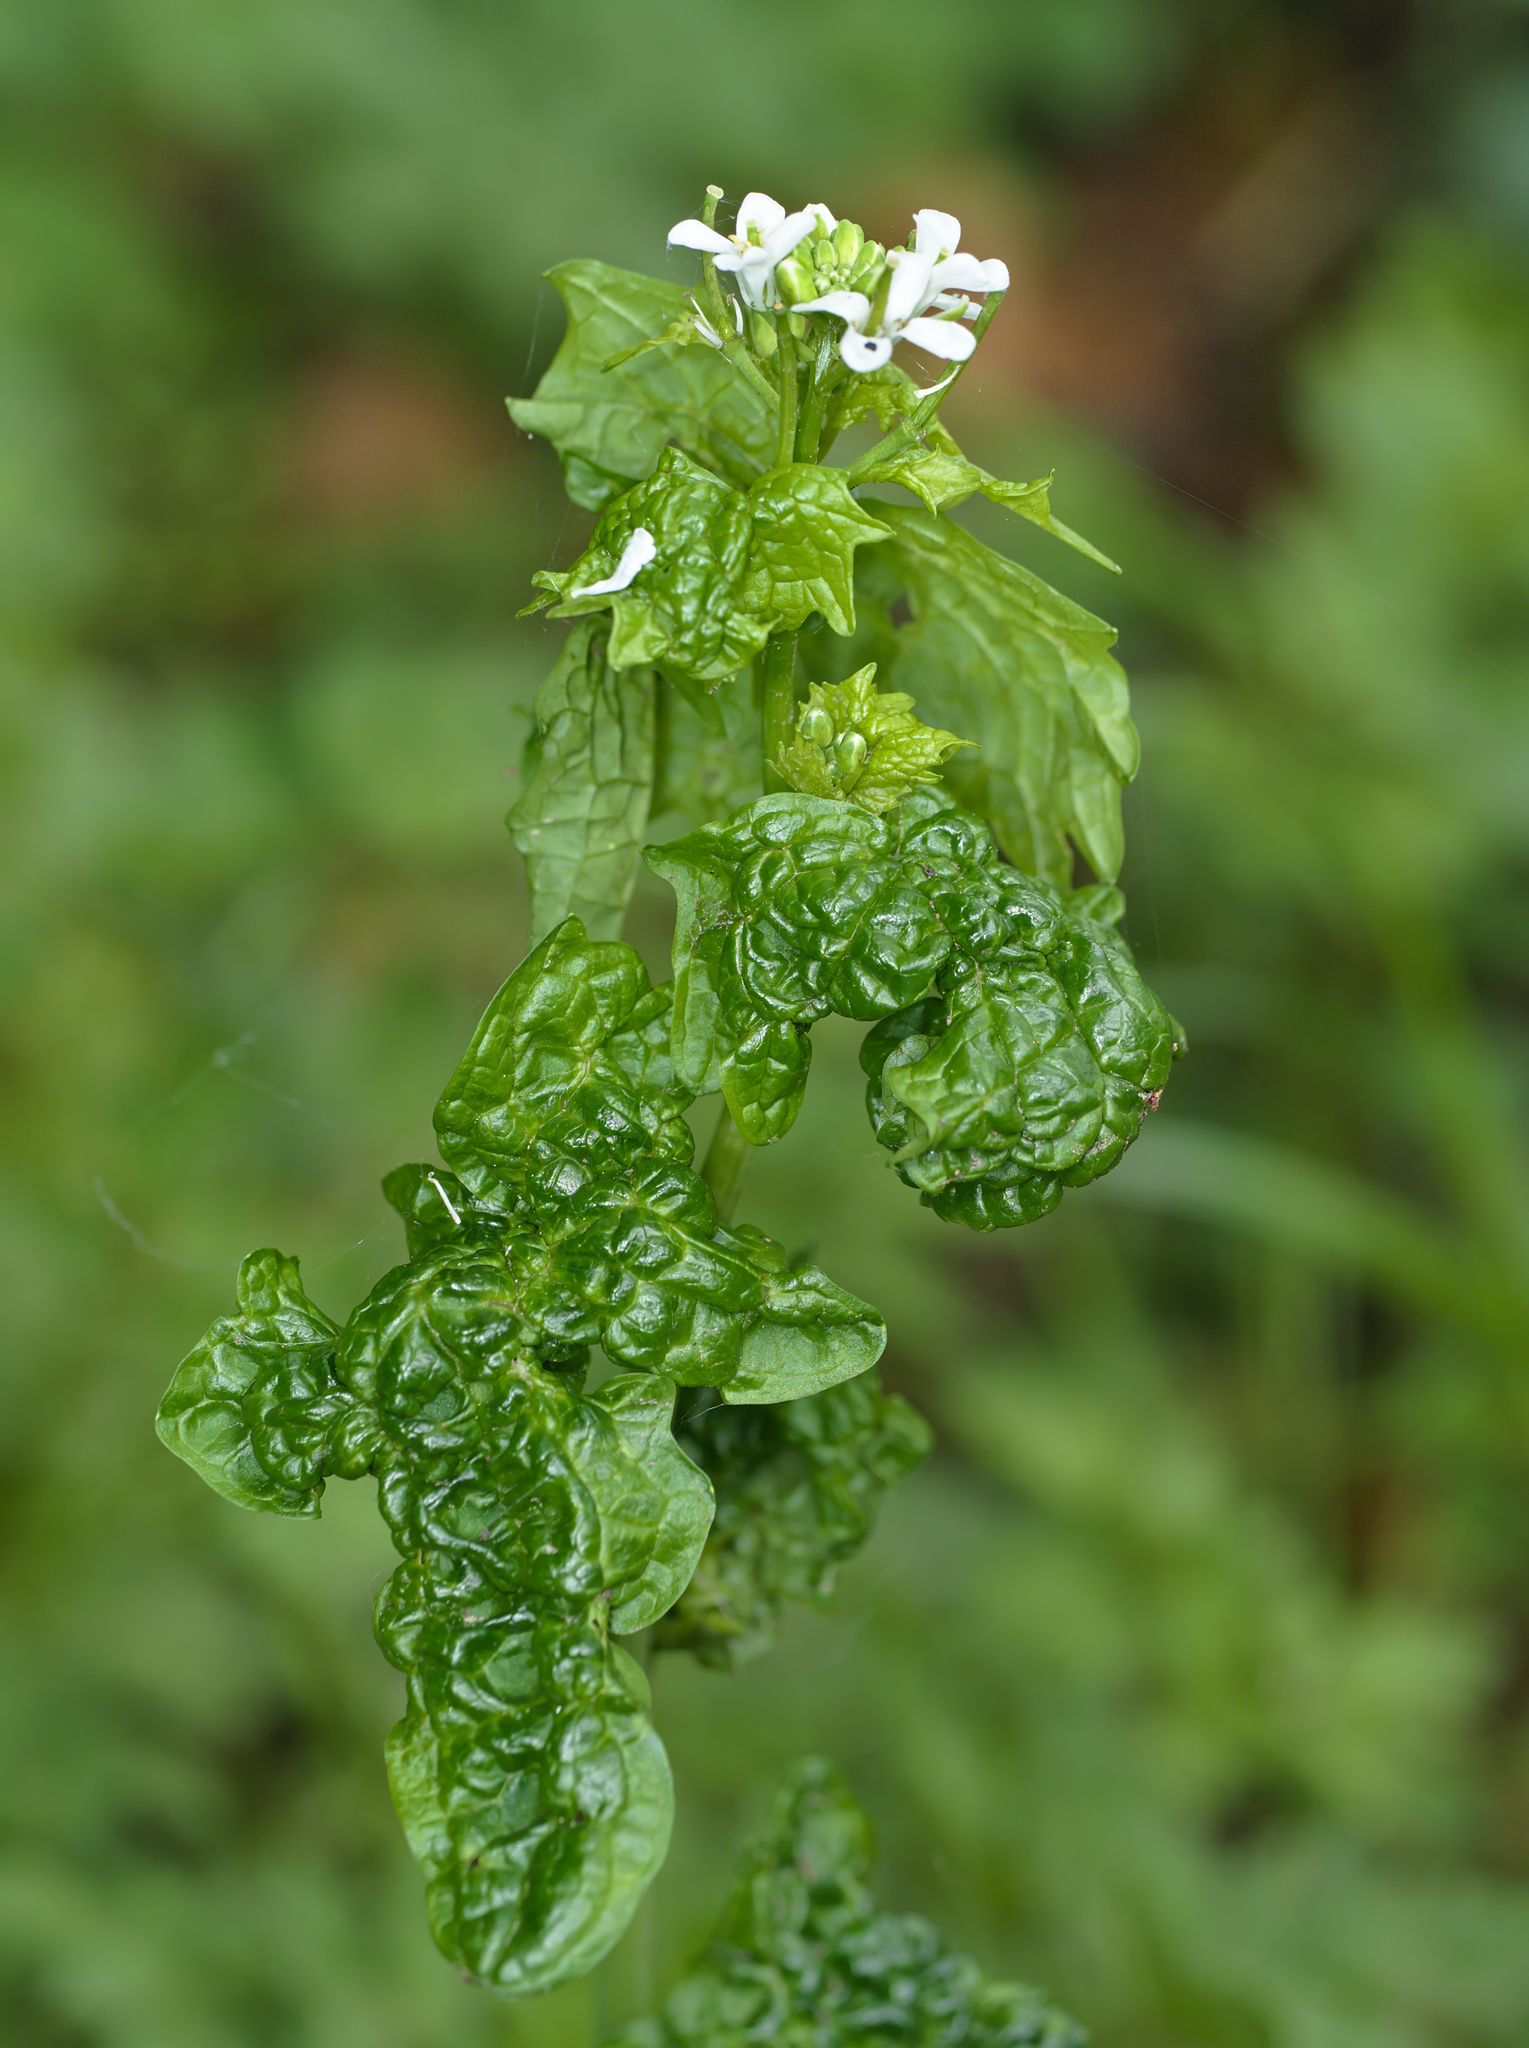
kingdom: Viruses
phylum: Kitrinoviricota
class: Tolucaviricetes
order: Tolivirales
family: Tombusviridae
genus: Betacarmovirus
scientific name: Betacarmovirus brassicae
